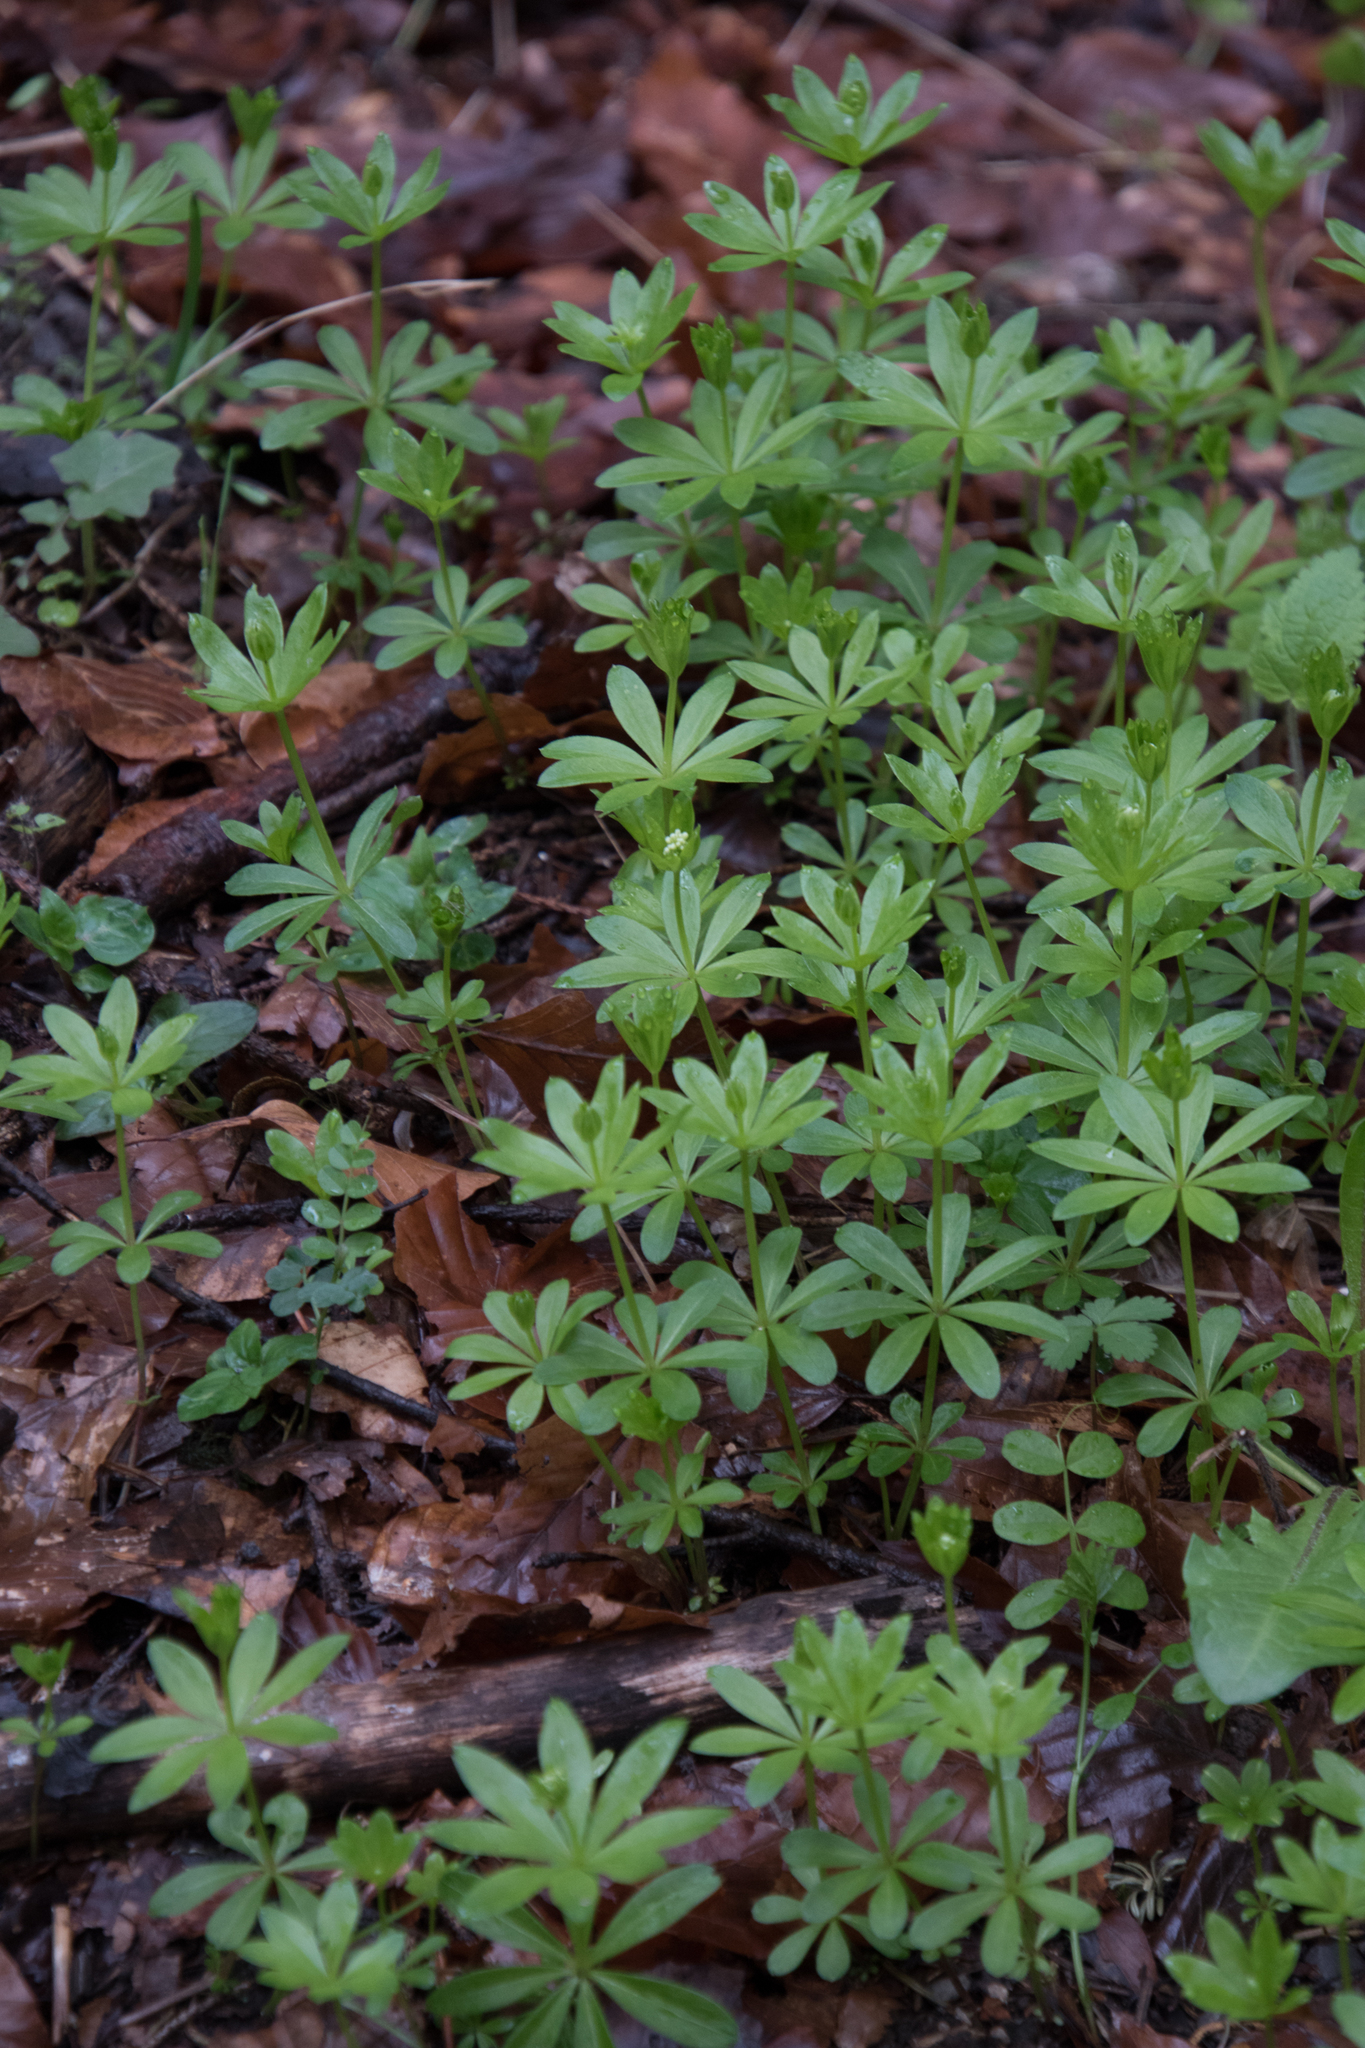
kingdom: Plantae
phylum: Tracheophyta
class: Magnoliopsida
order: Gentianales
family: Rubiaceae
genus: Galium
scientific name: Galium odoratum
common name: Sweet woodruff
